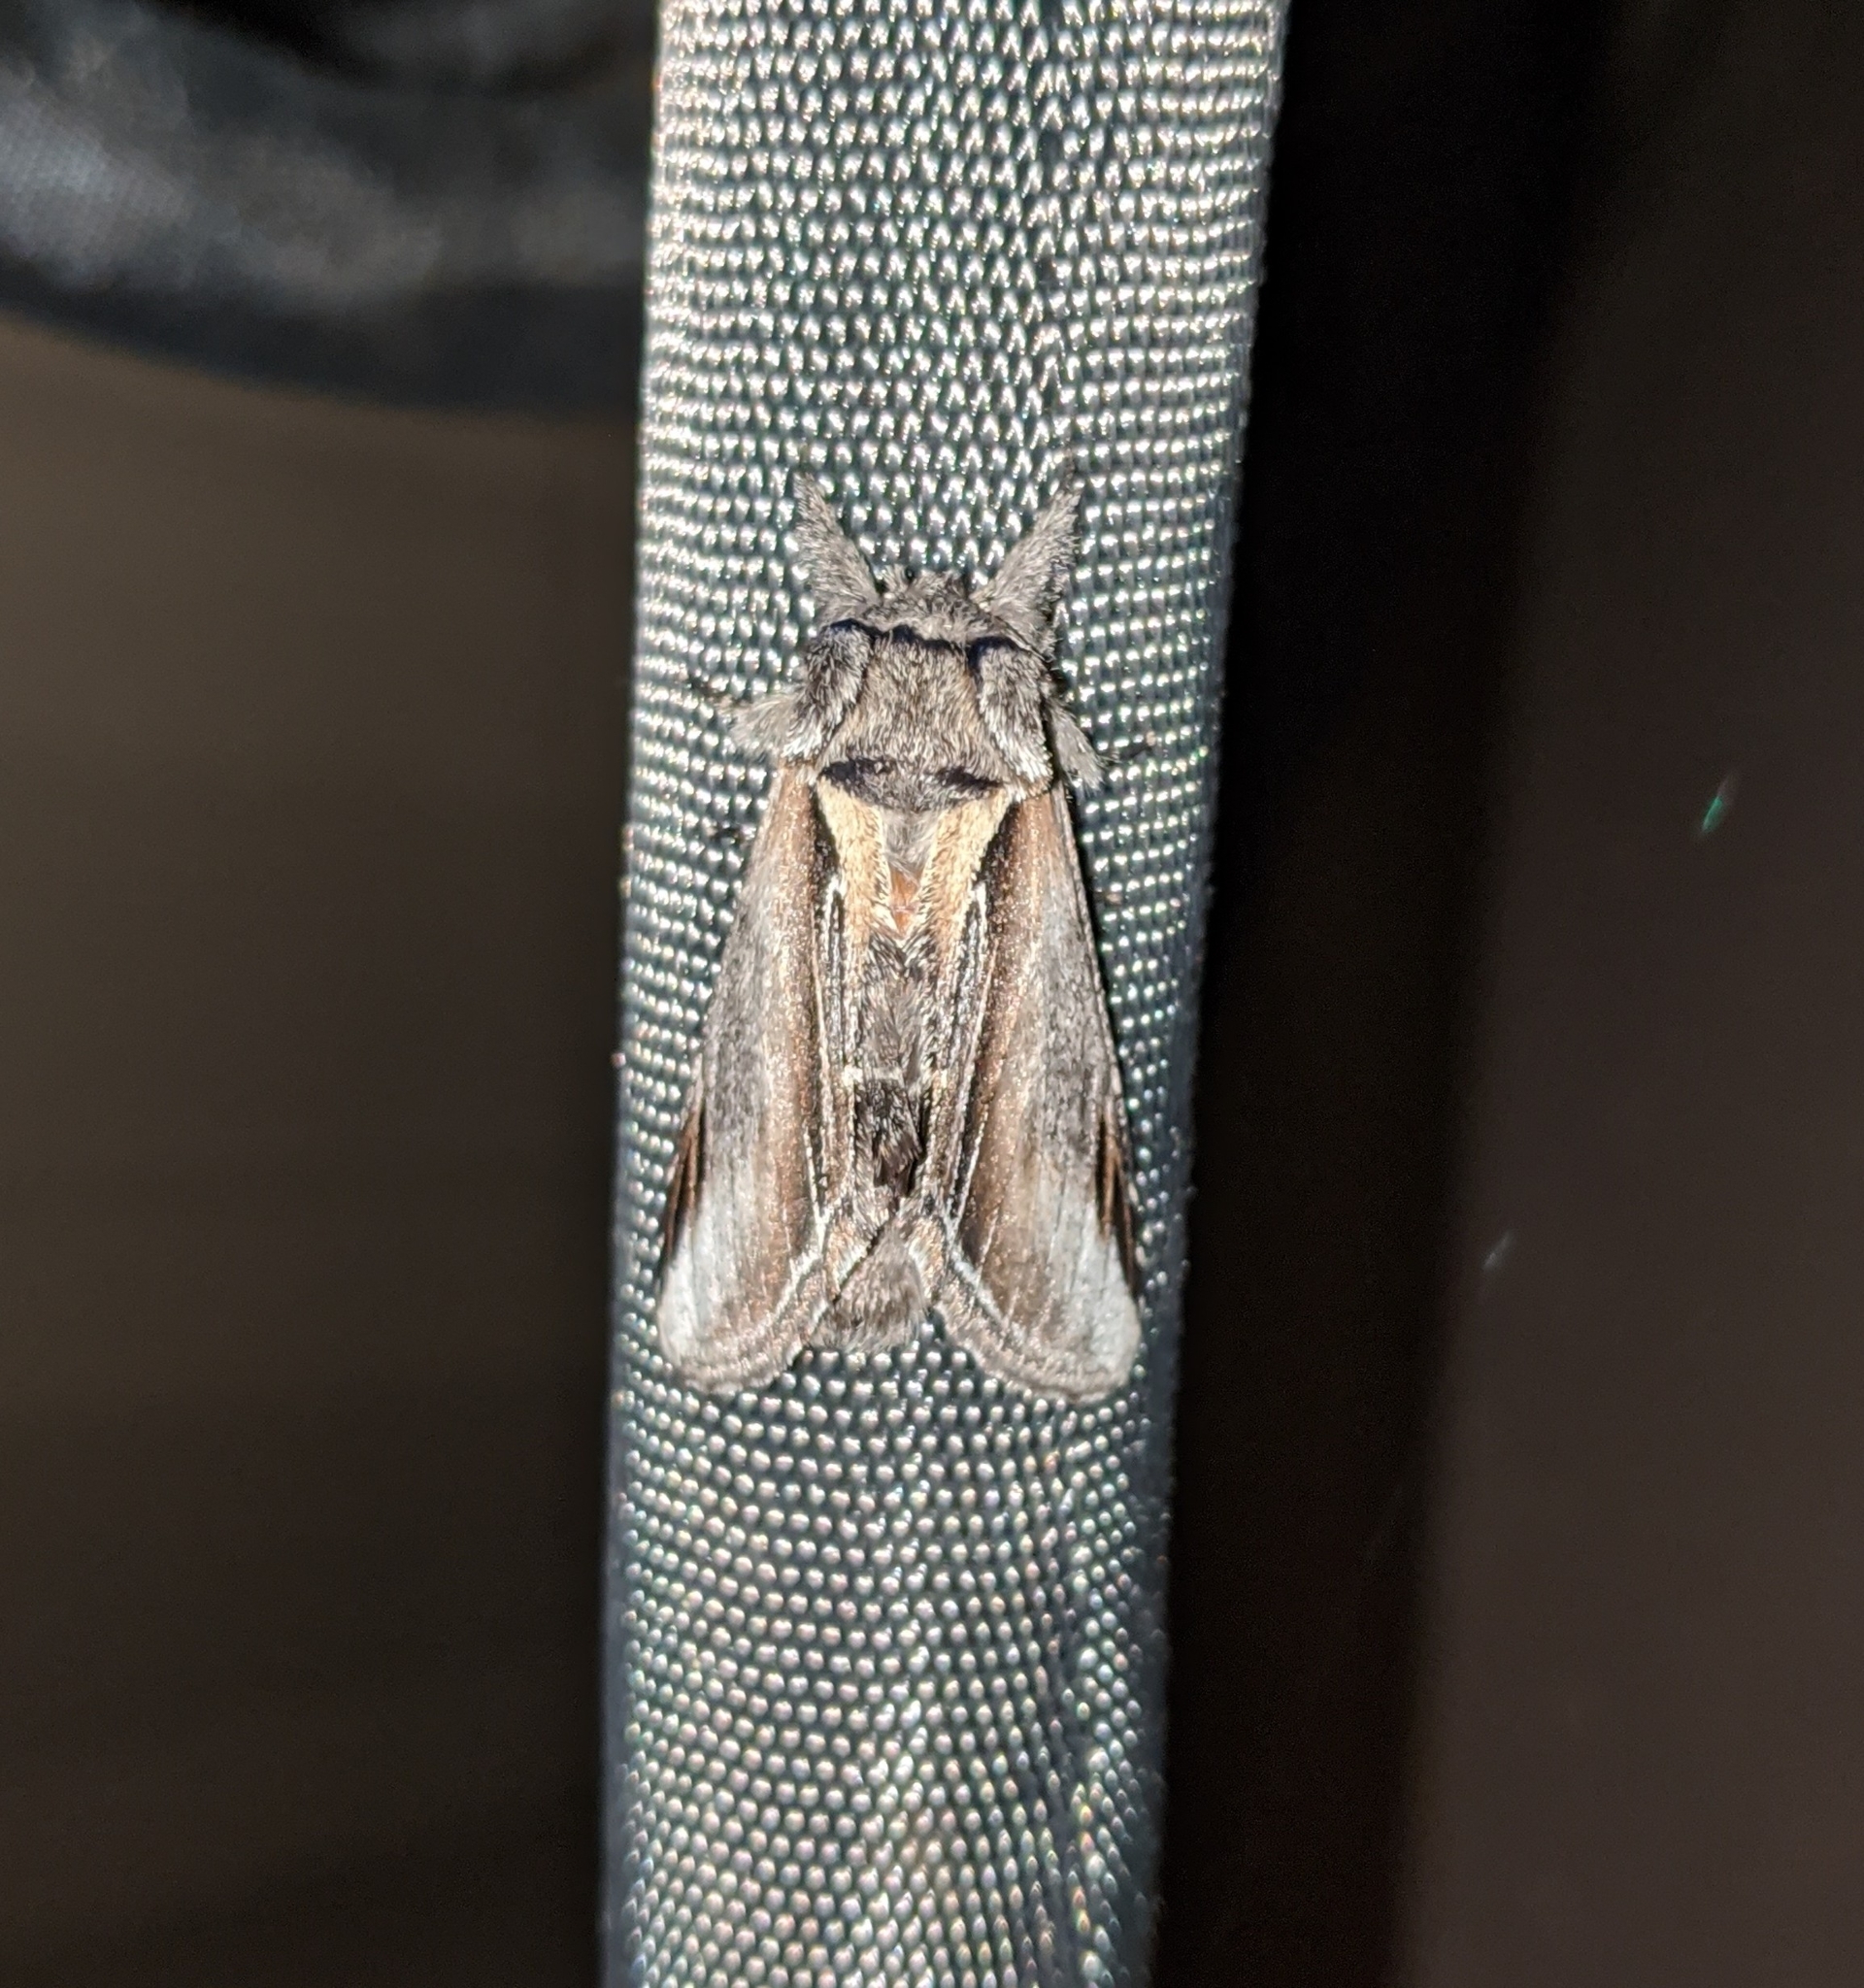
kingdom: Animalia
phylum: Arthropoda
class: Insecta
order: Lepidoptera
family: Notodontidae
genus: Pheosia
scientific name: Pheosia rimosa
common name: Black-rimmed prominent
